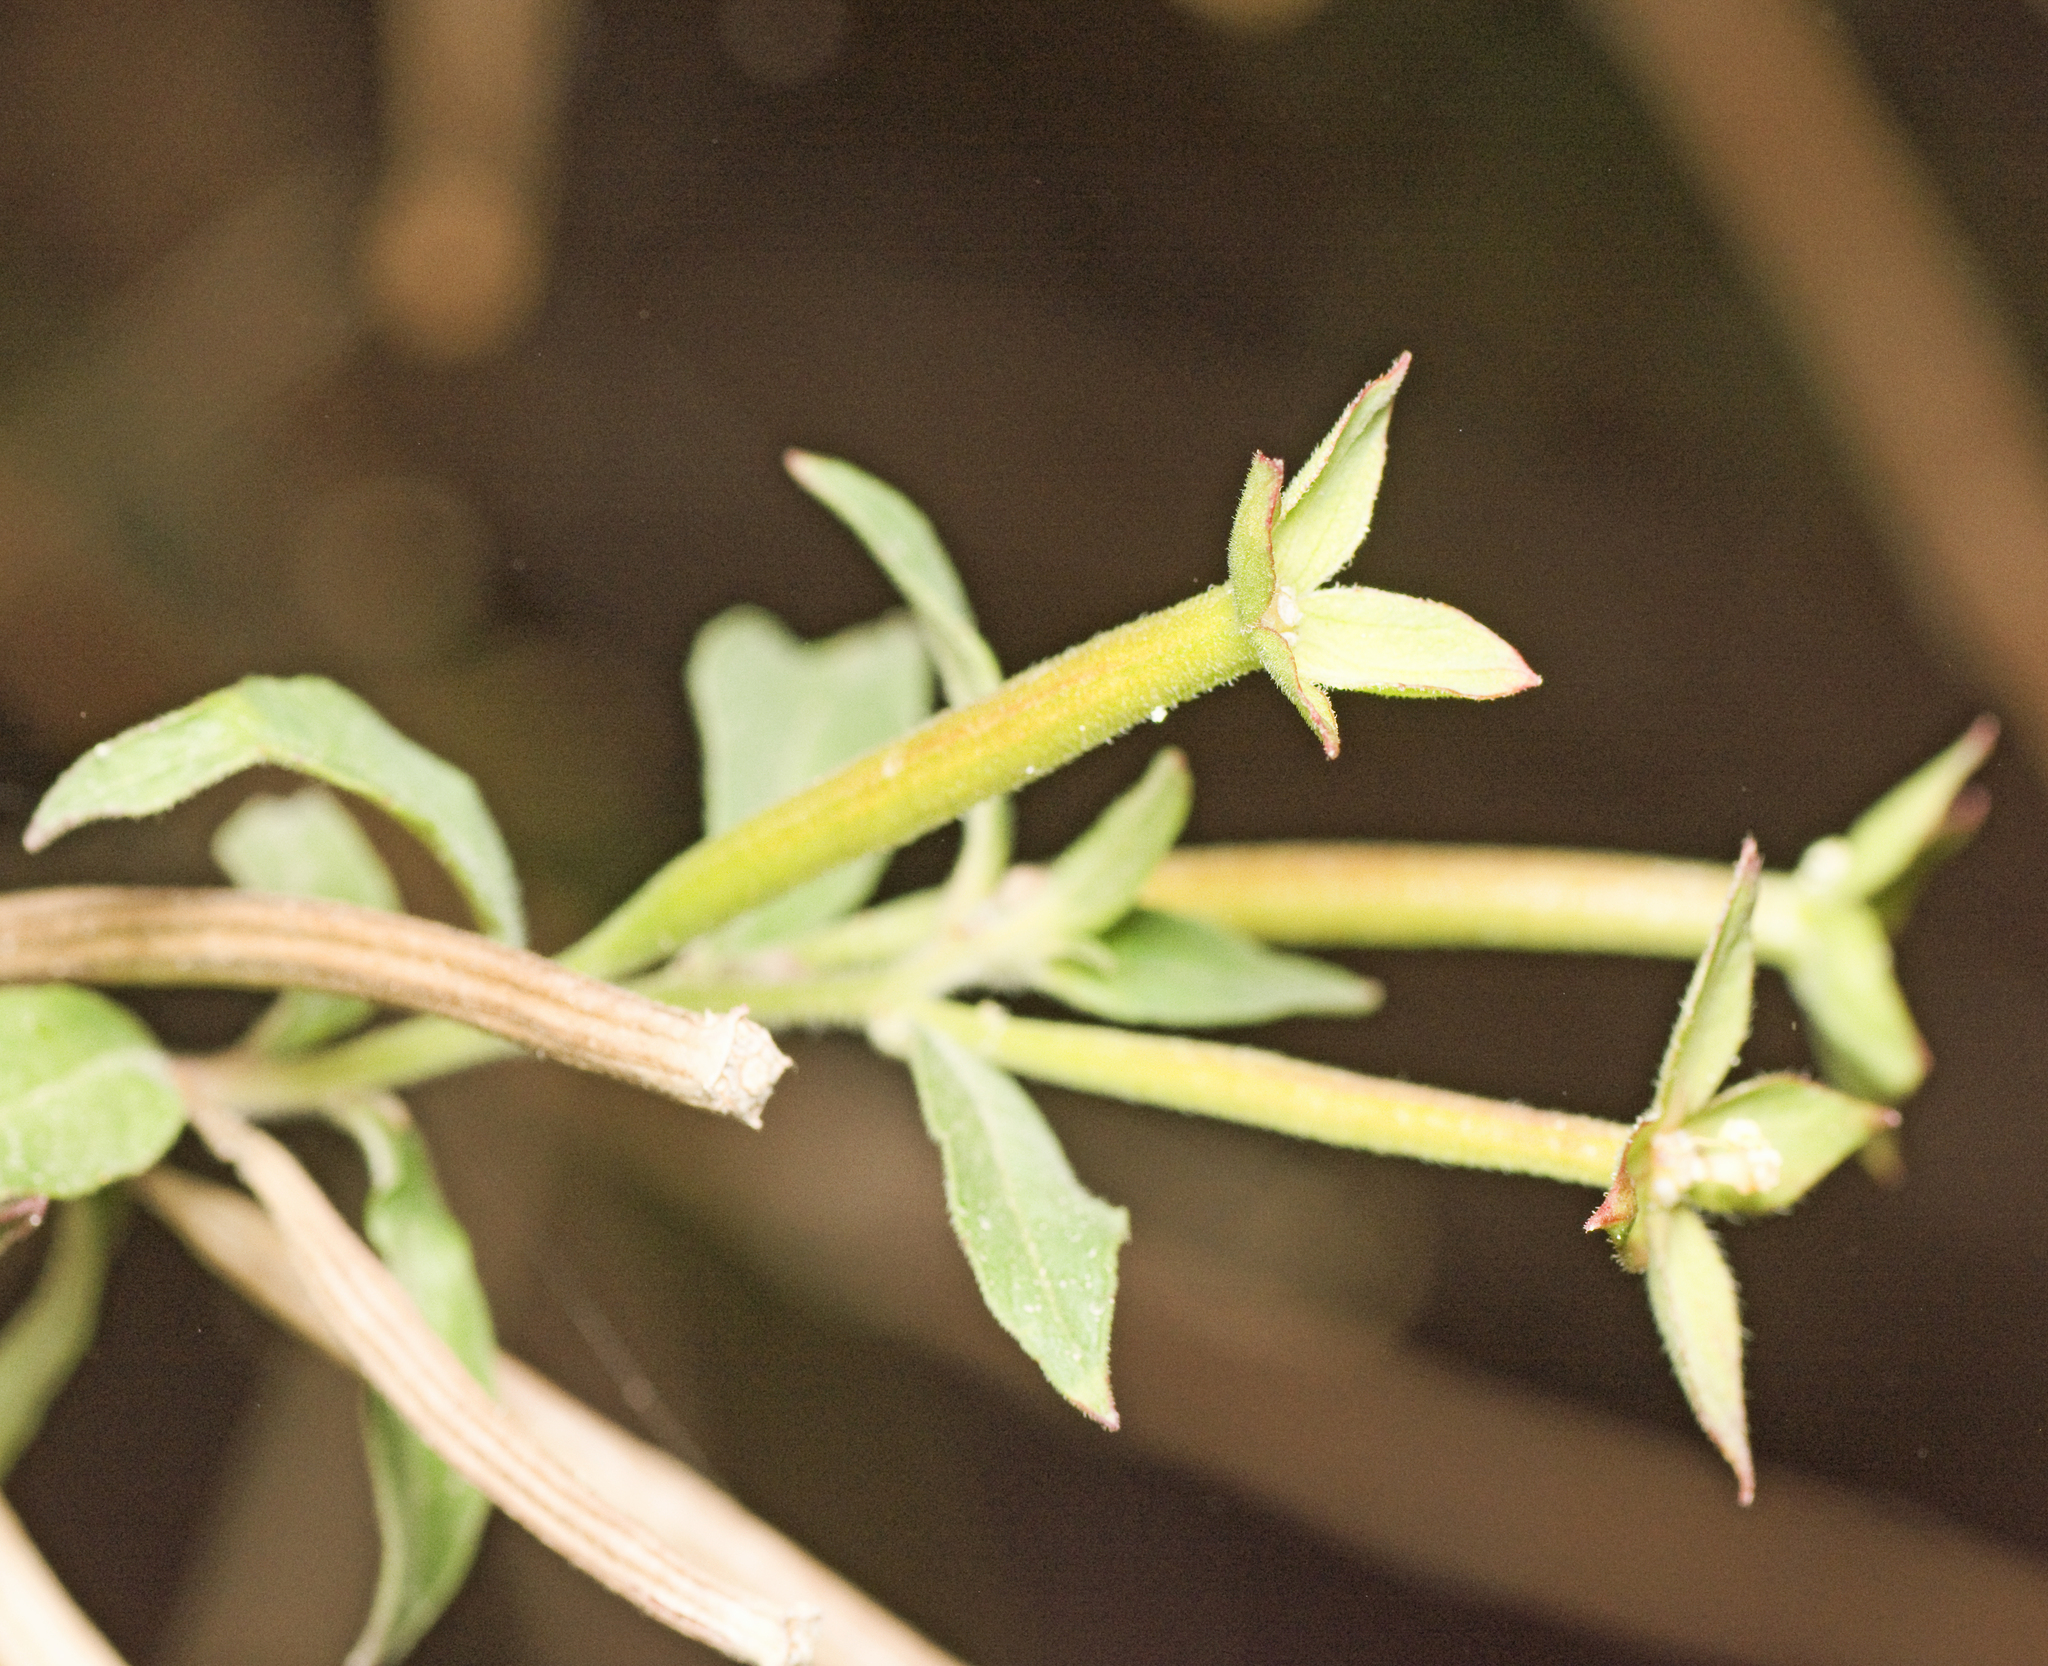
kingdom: Plantae
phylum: Tracheophyta
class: Magnoliopsida
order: Myrtales
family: Onagraceae
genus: Ludwigia
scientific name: Ludwigia octovalvis
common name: Water-primrose
